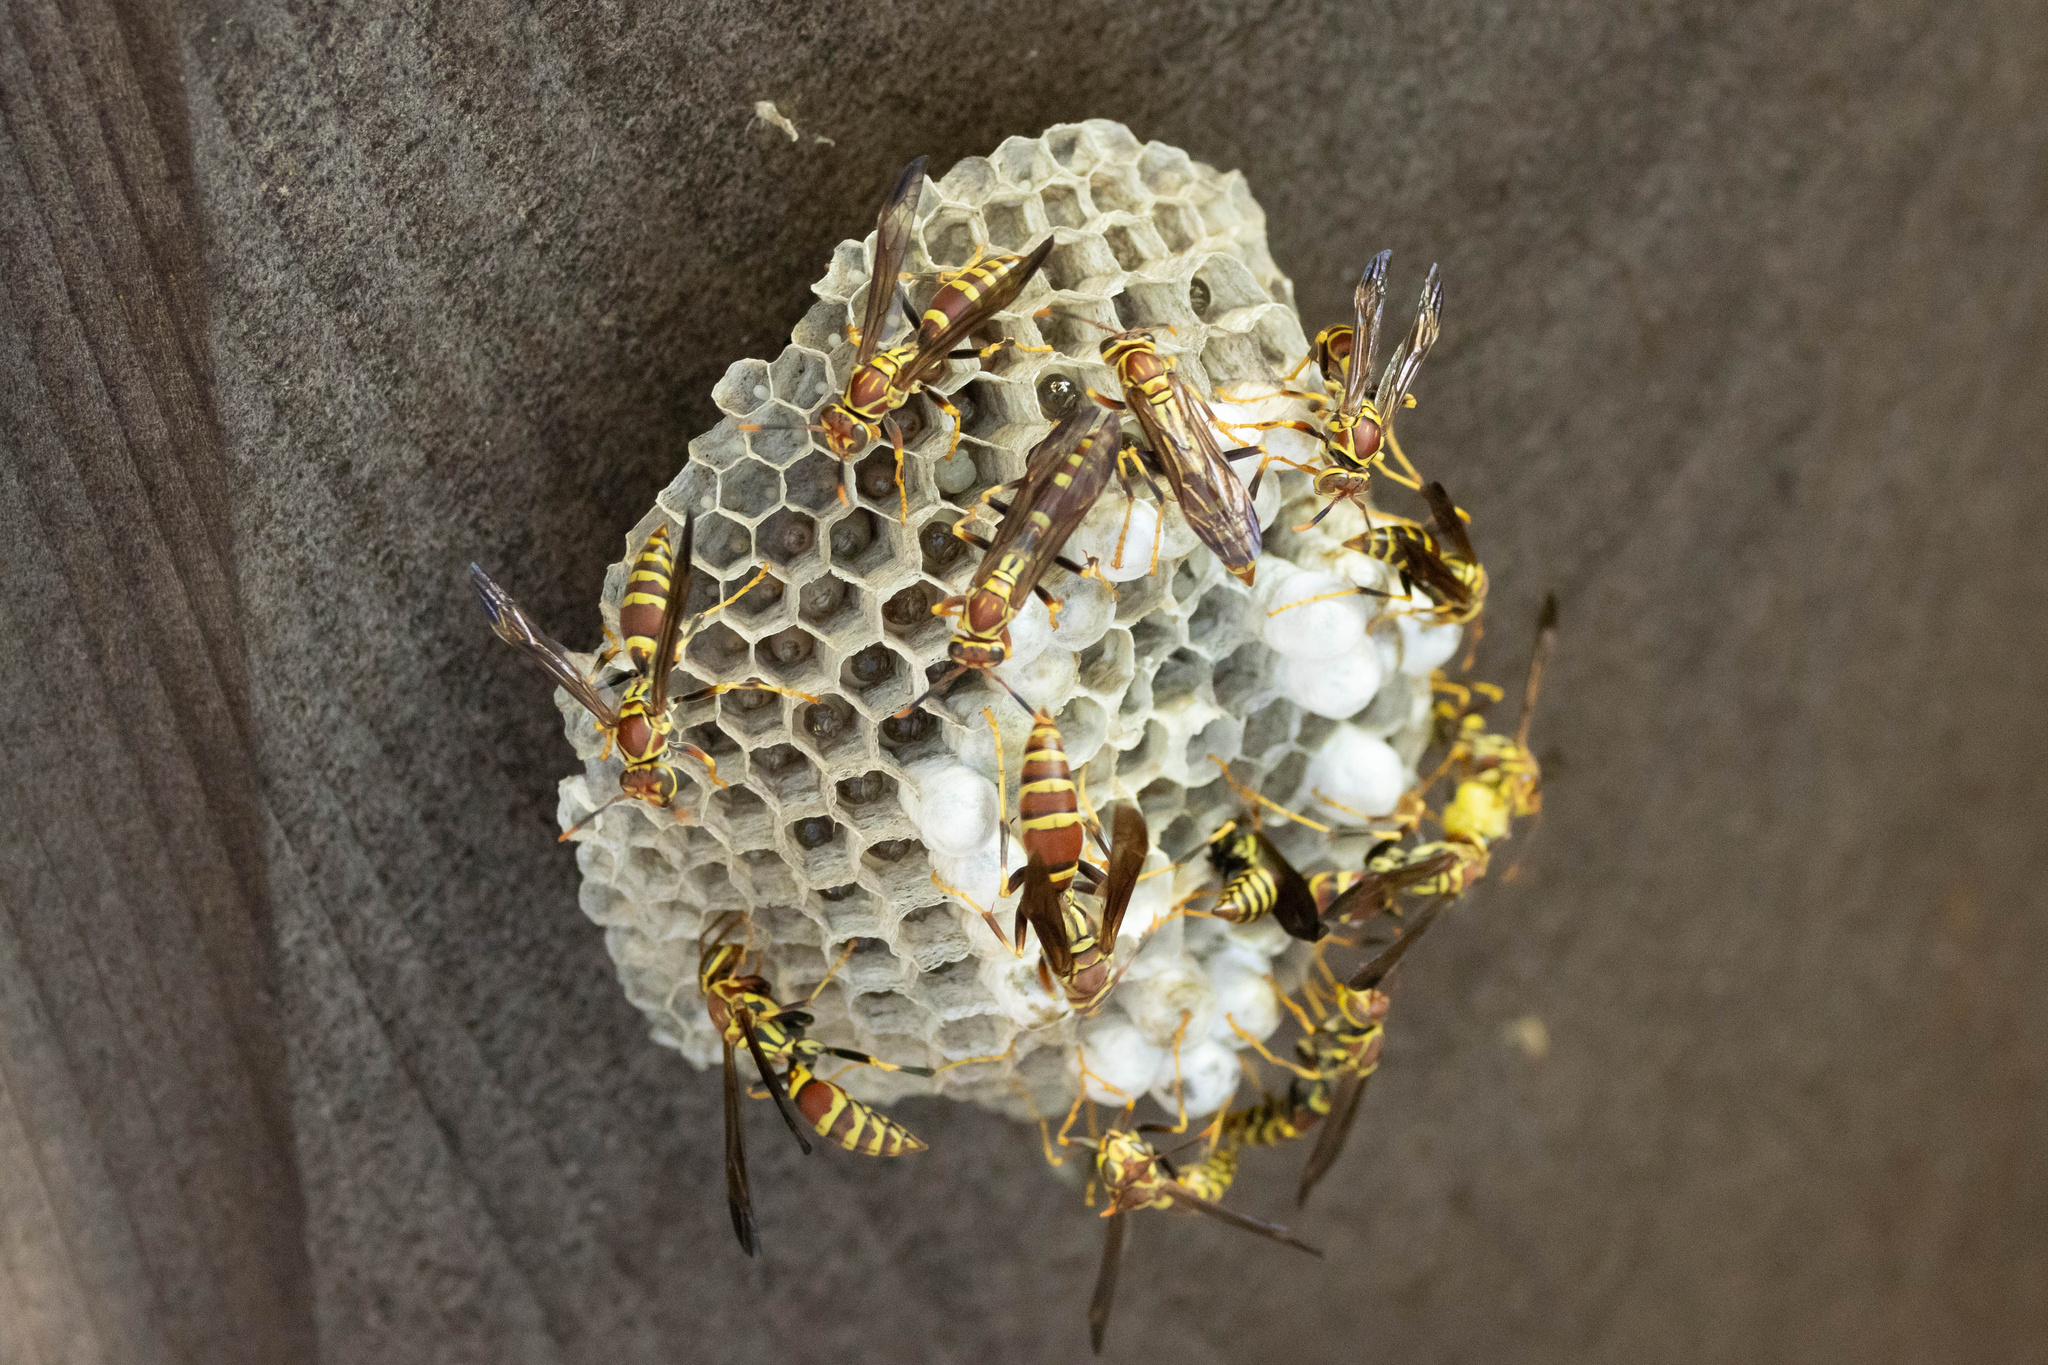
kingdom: Animalia
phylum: Arthropoda
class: Insecta
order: Hymenoptera
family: Eumenidae
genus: Polistes
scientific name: Polistes exclamans
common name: Paper wasp
